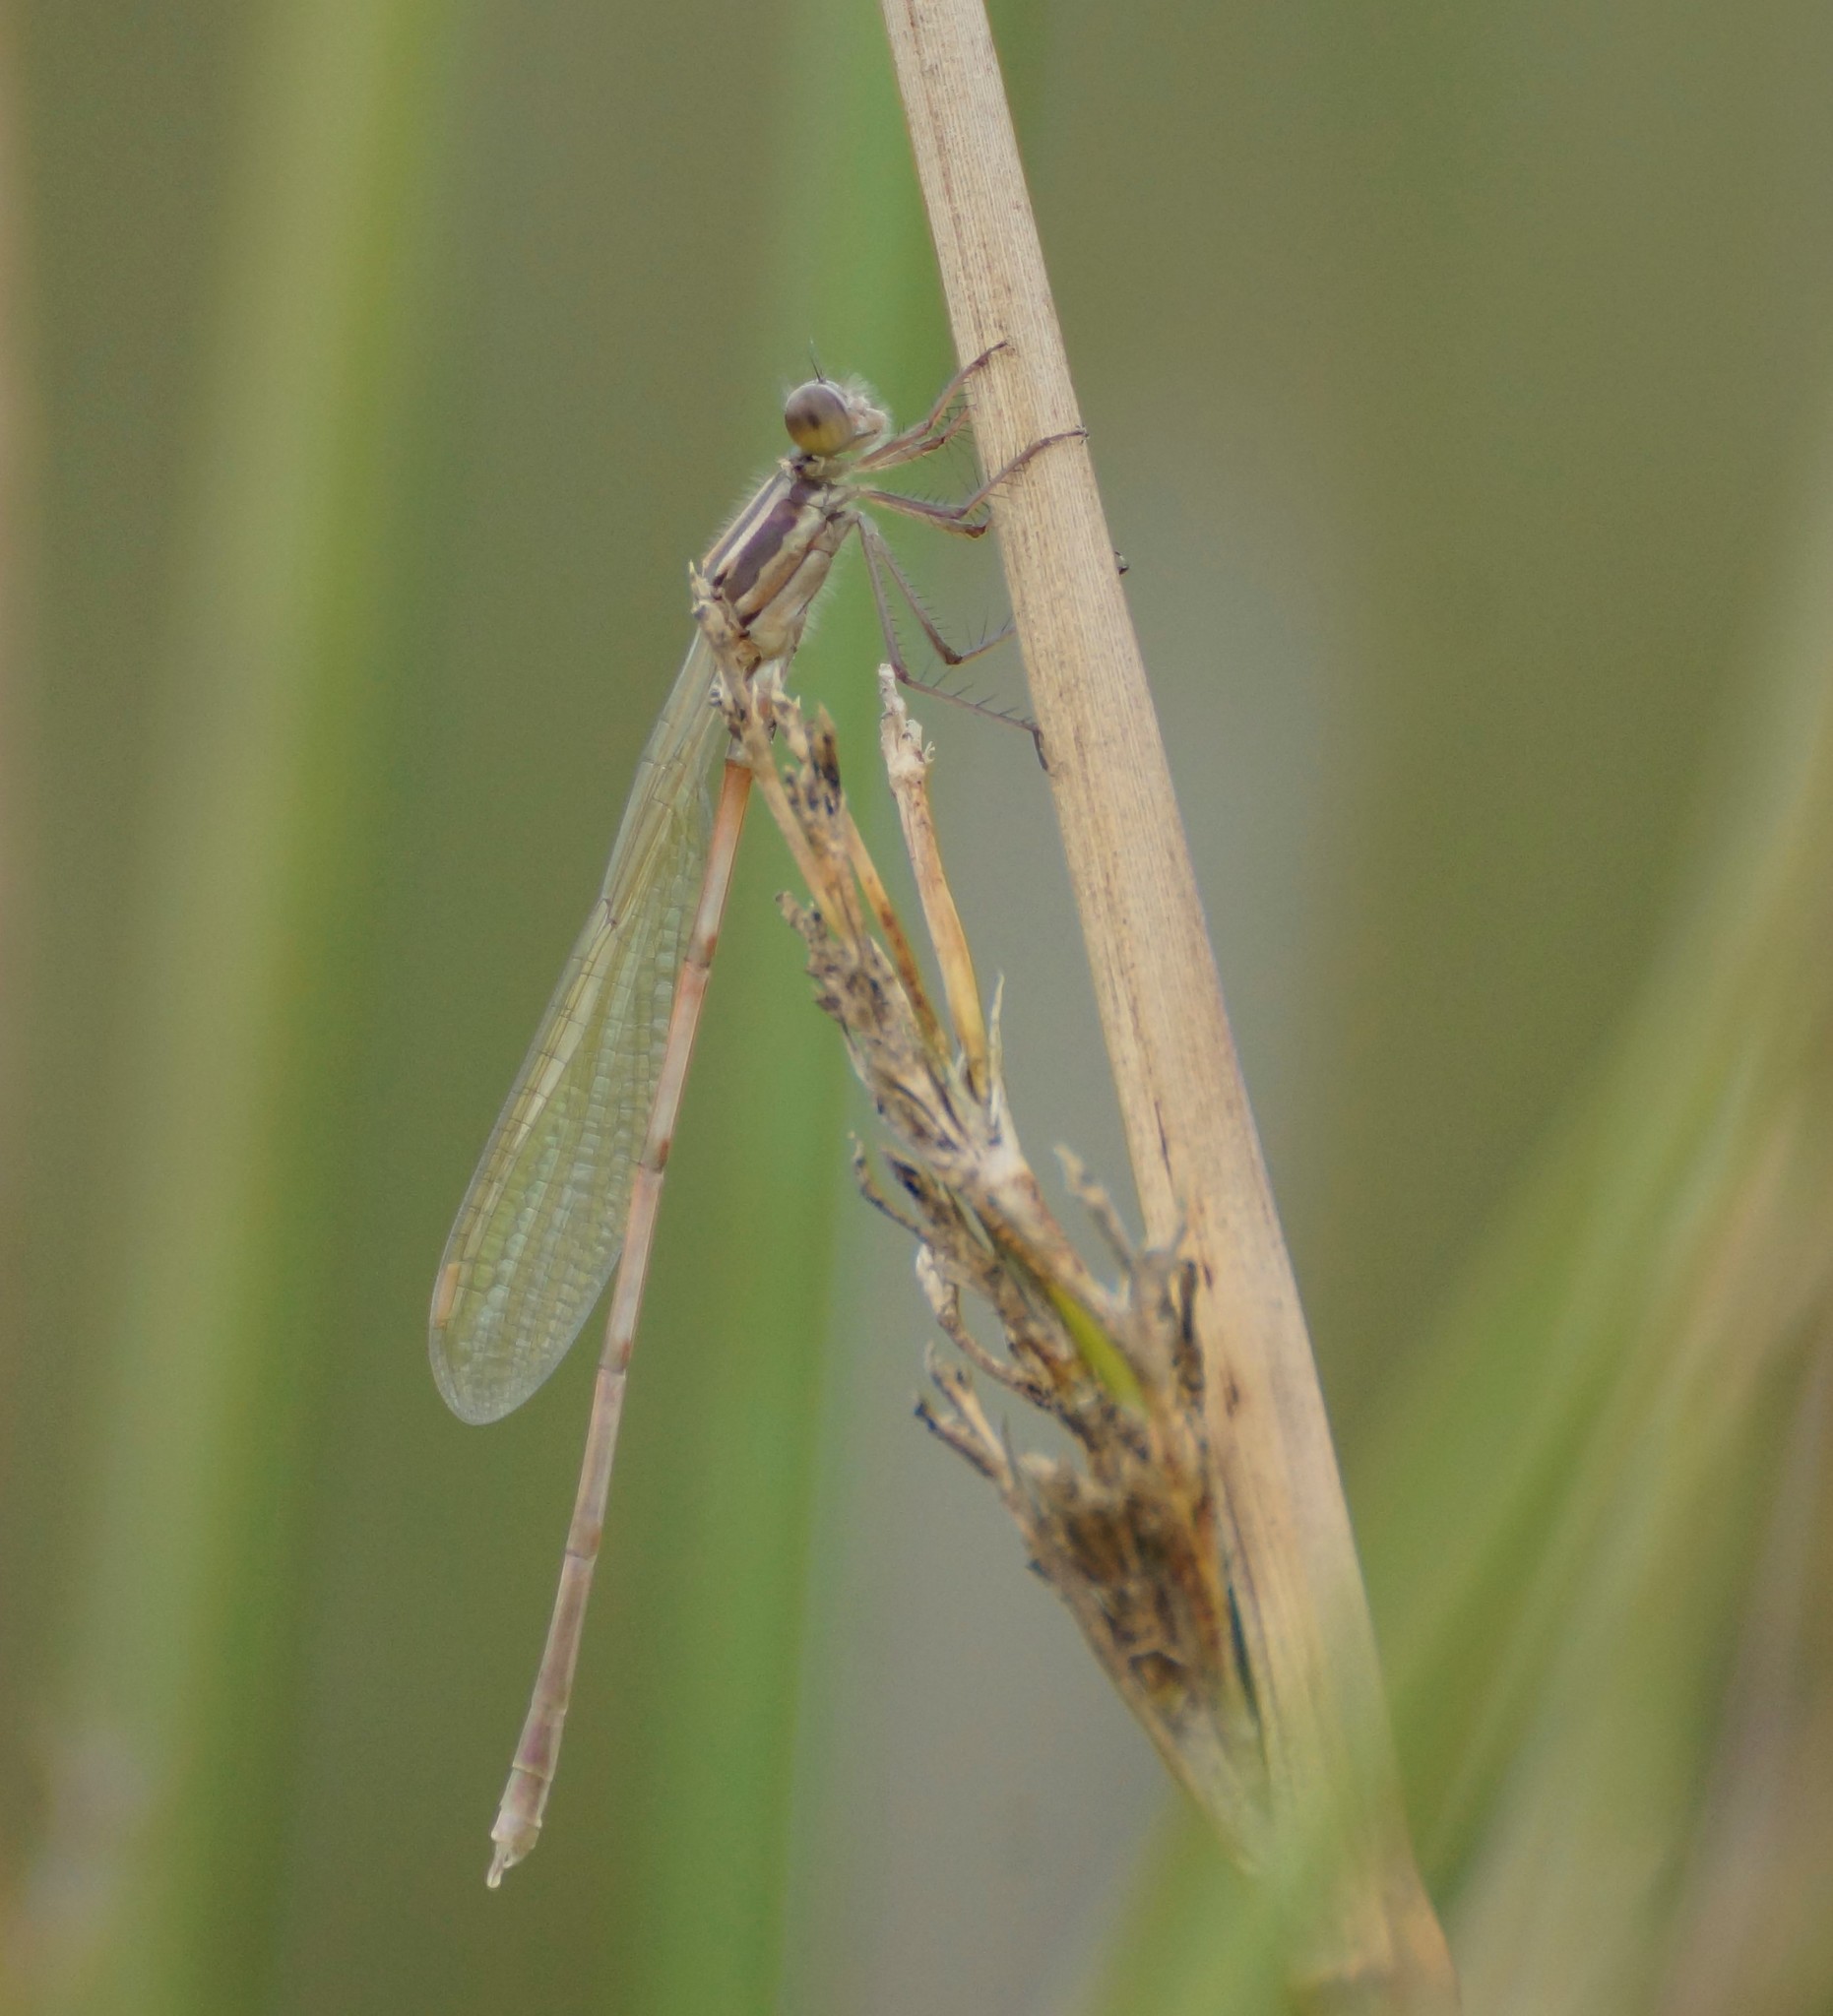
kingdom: Animalia
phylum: Arthropoda
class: Insecta
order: Odonata
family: Lestidae
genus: Austrolestes
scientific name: Austrolestes leda
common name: Wandering ringtail
